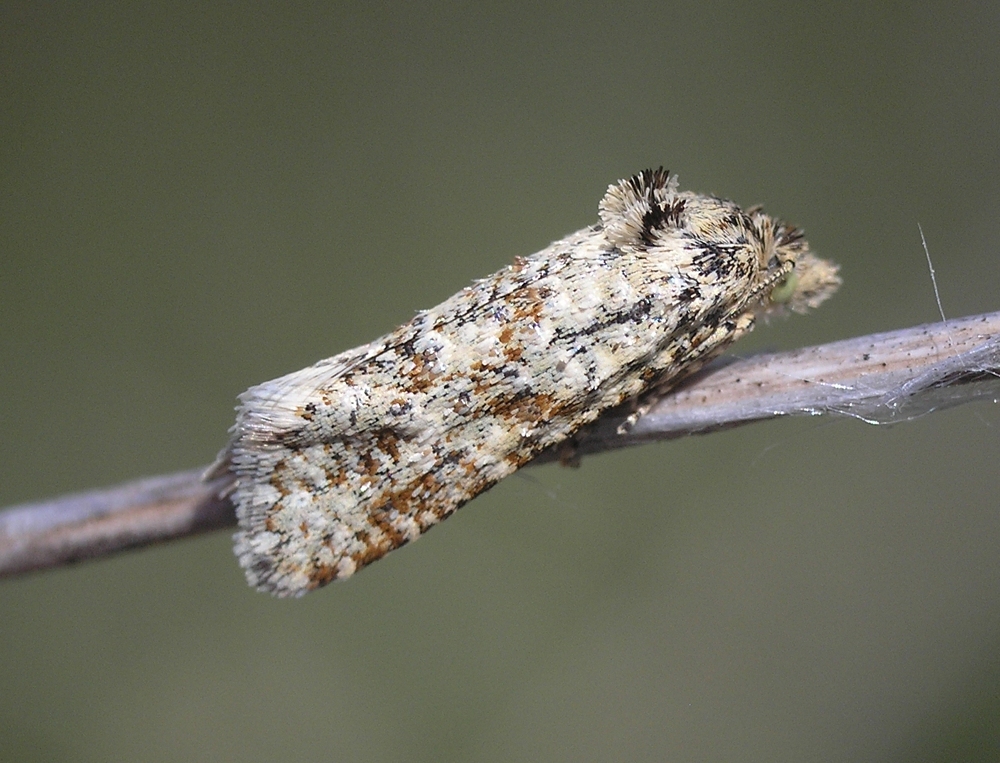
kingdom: Animalia
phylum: Arthropoda
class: Insecta
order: Lepidoptera
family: Tortricidae
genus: Aethes
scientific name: Aethes margarotana
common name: Shore conch
